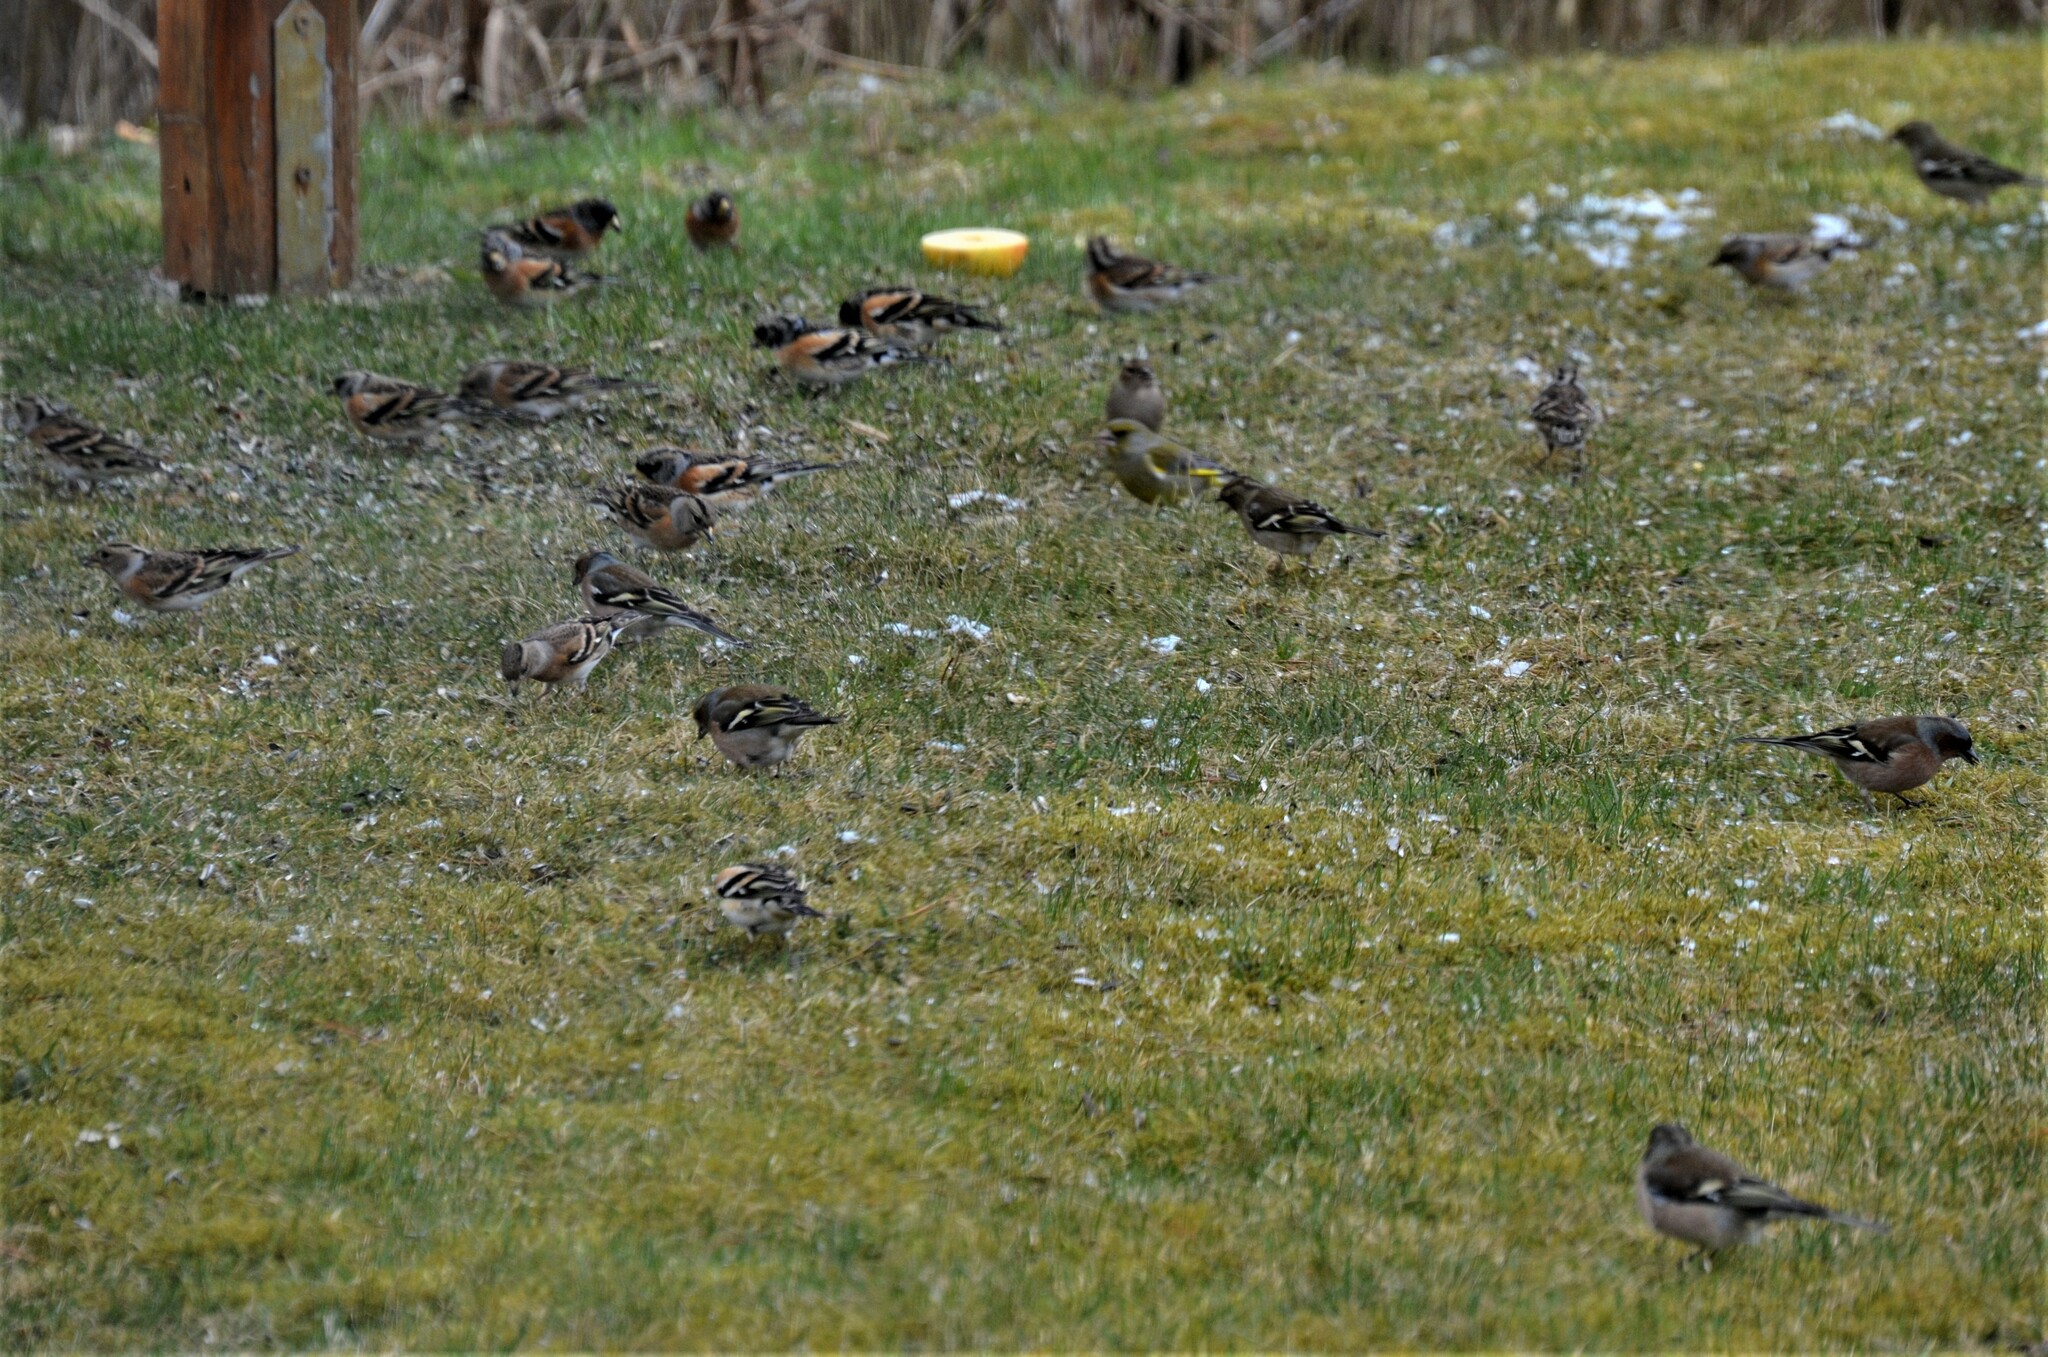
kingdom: Animalia
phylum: Chordata
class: Aves
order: Passeriformes
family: Fringillidae
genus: Fringilla
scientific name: Fringilla montifringilla
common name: Brambling
